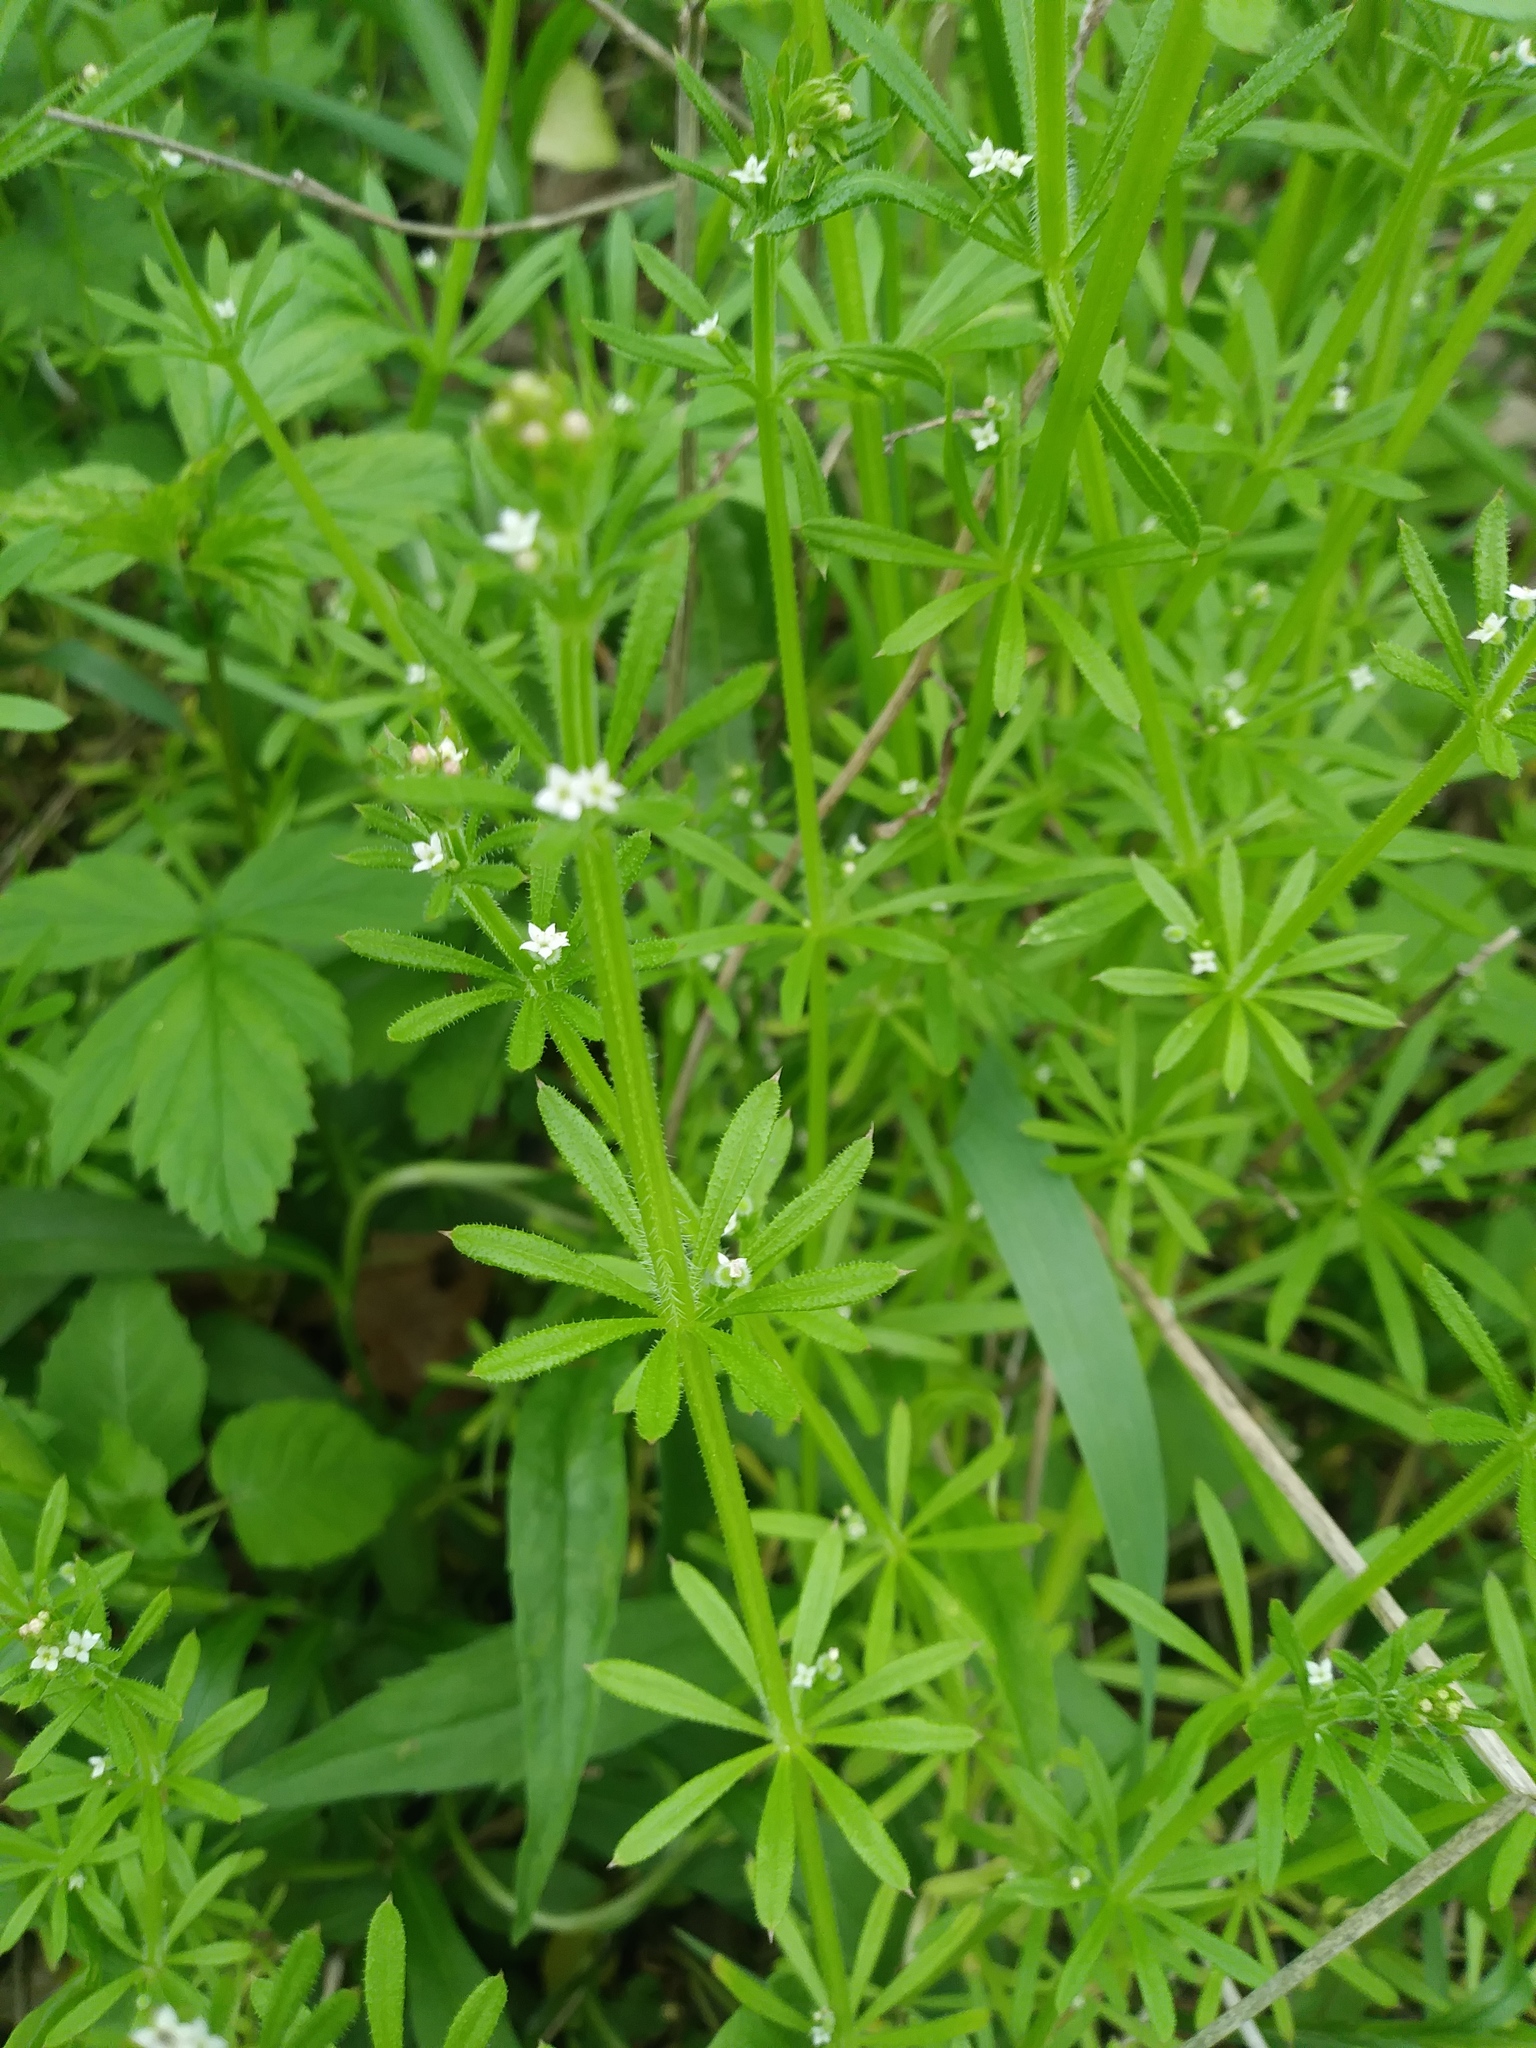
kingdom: Plantae
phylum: Tracheophyta
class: Magnoliopsida
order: Gentianales
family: Rubiaceae
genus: Galium
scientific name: Galium aparine
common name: Cleavers
